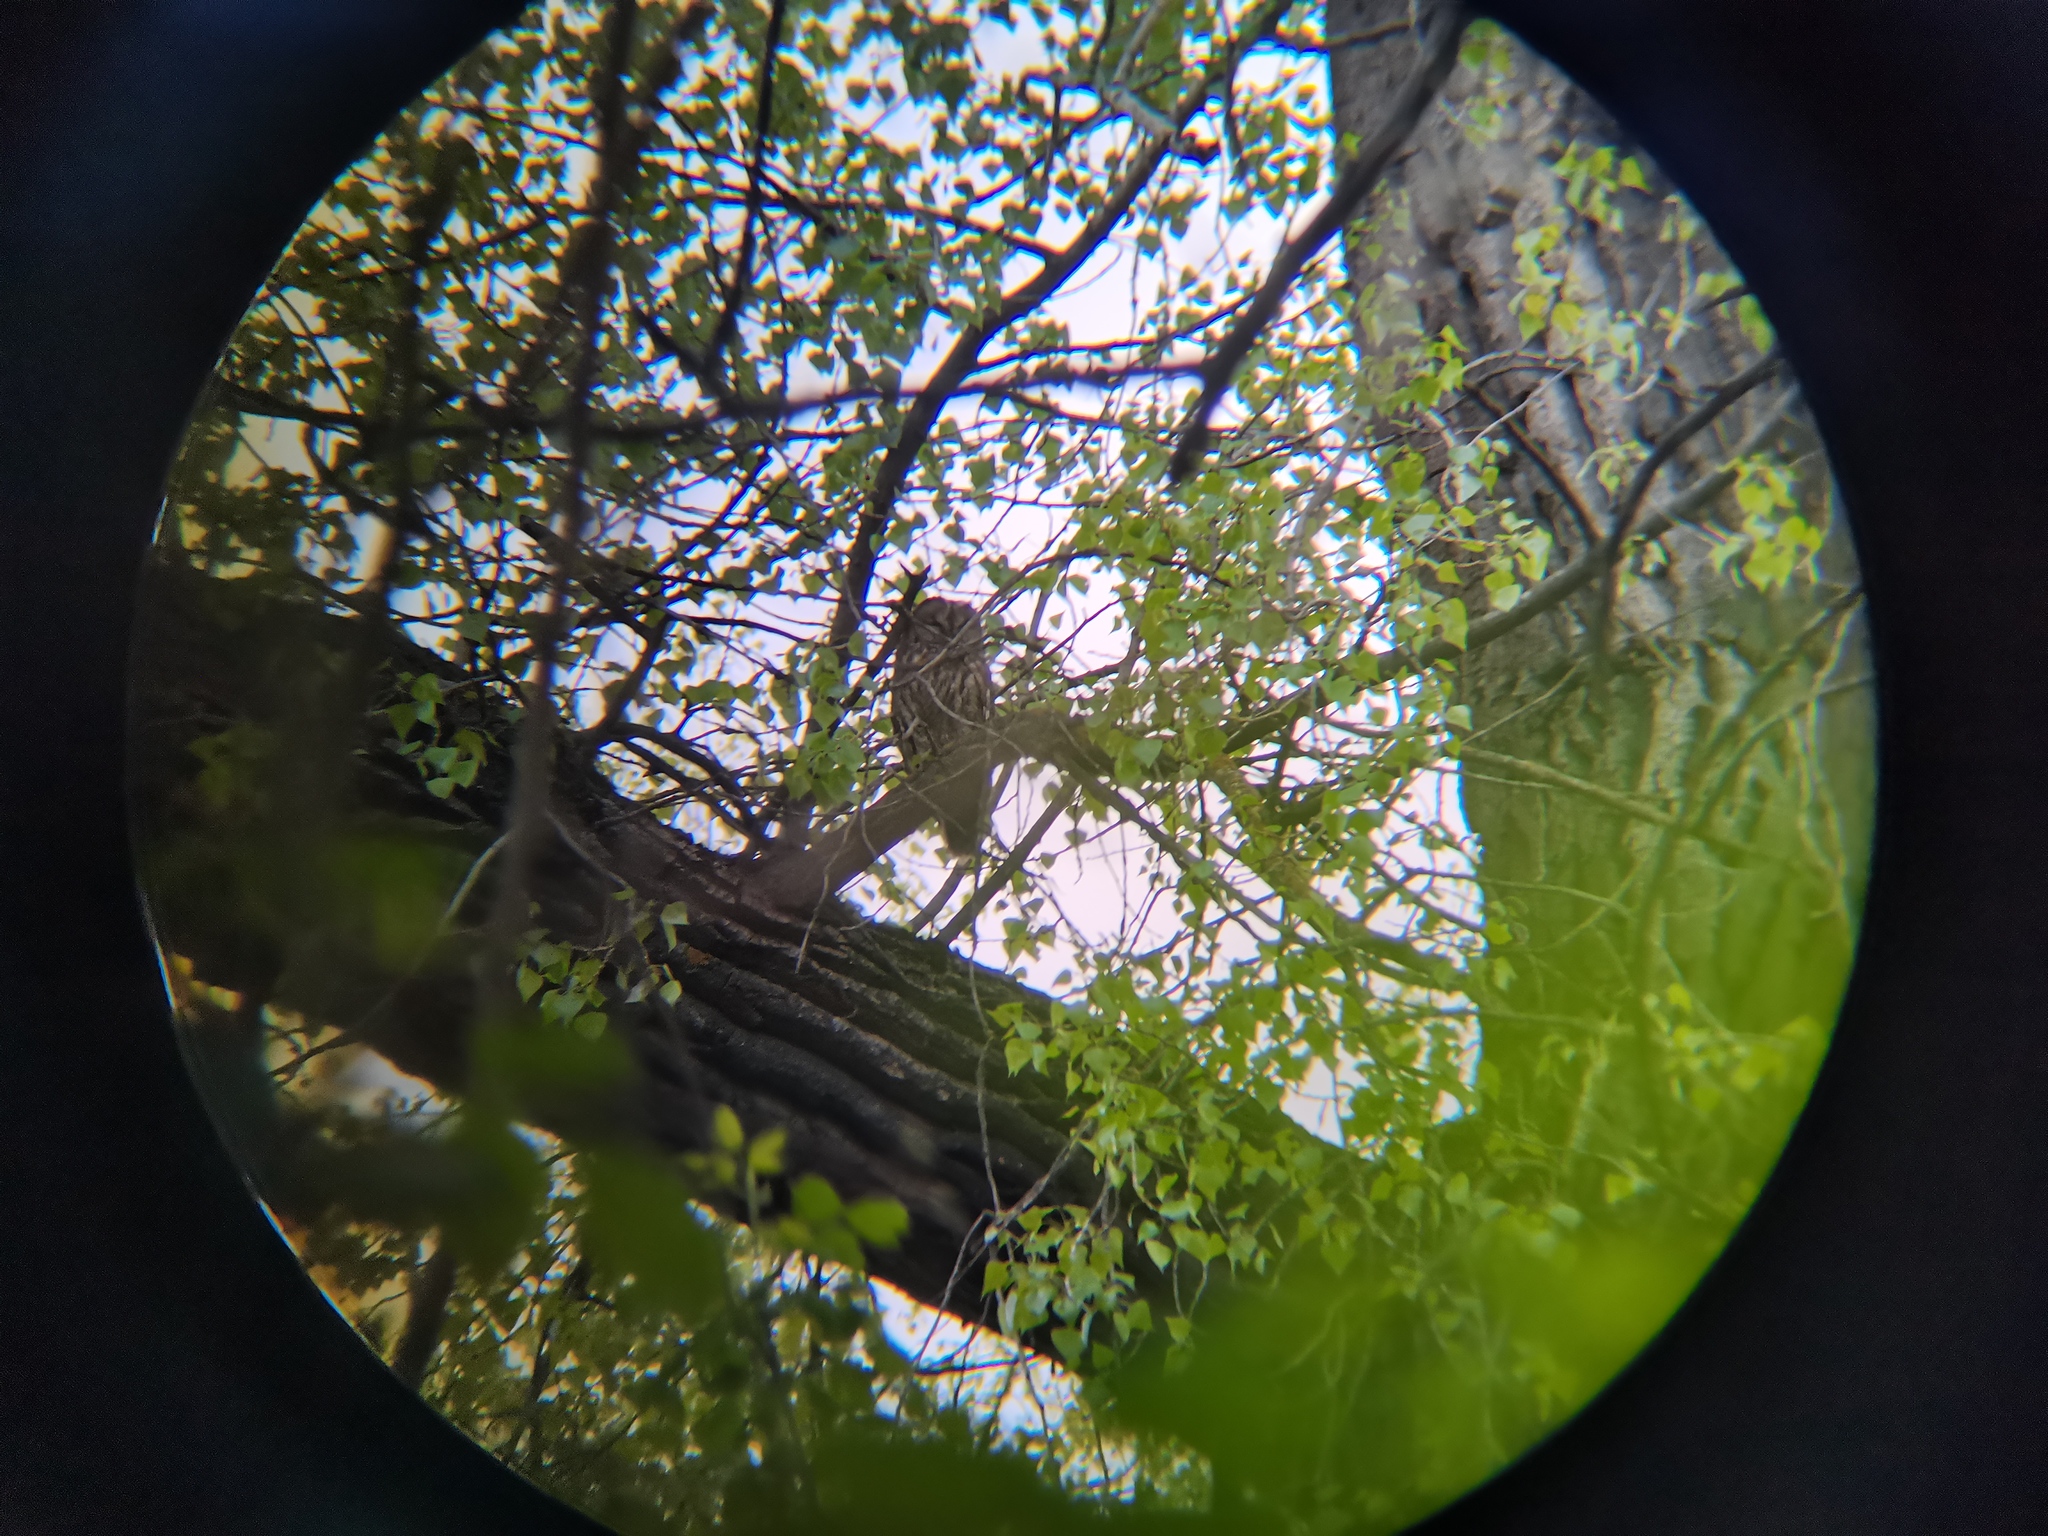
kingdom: Animalia
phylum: Chordata
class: Aves
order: Strigiformes
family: Strigidae
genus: Strix
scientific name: Strix aluco
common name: Tawny owl
